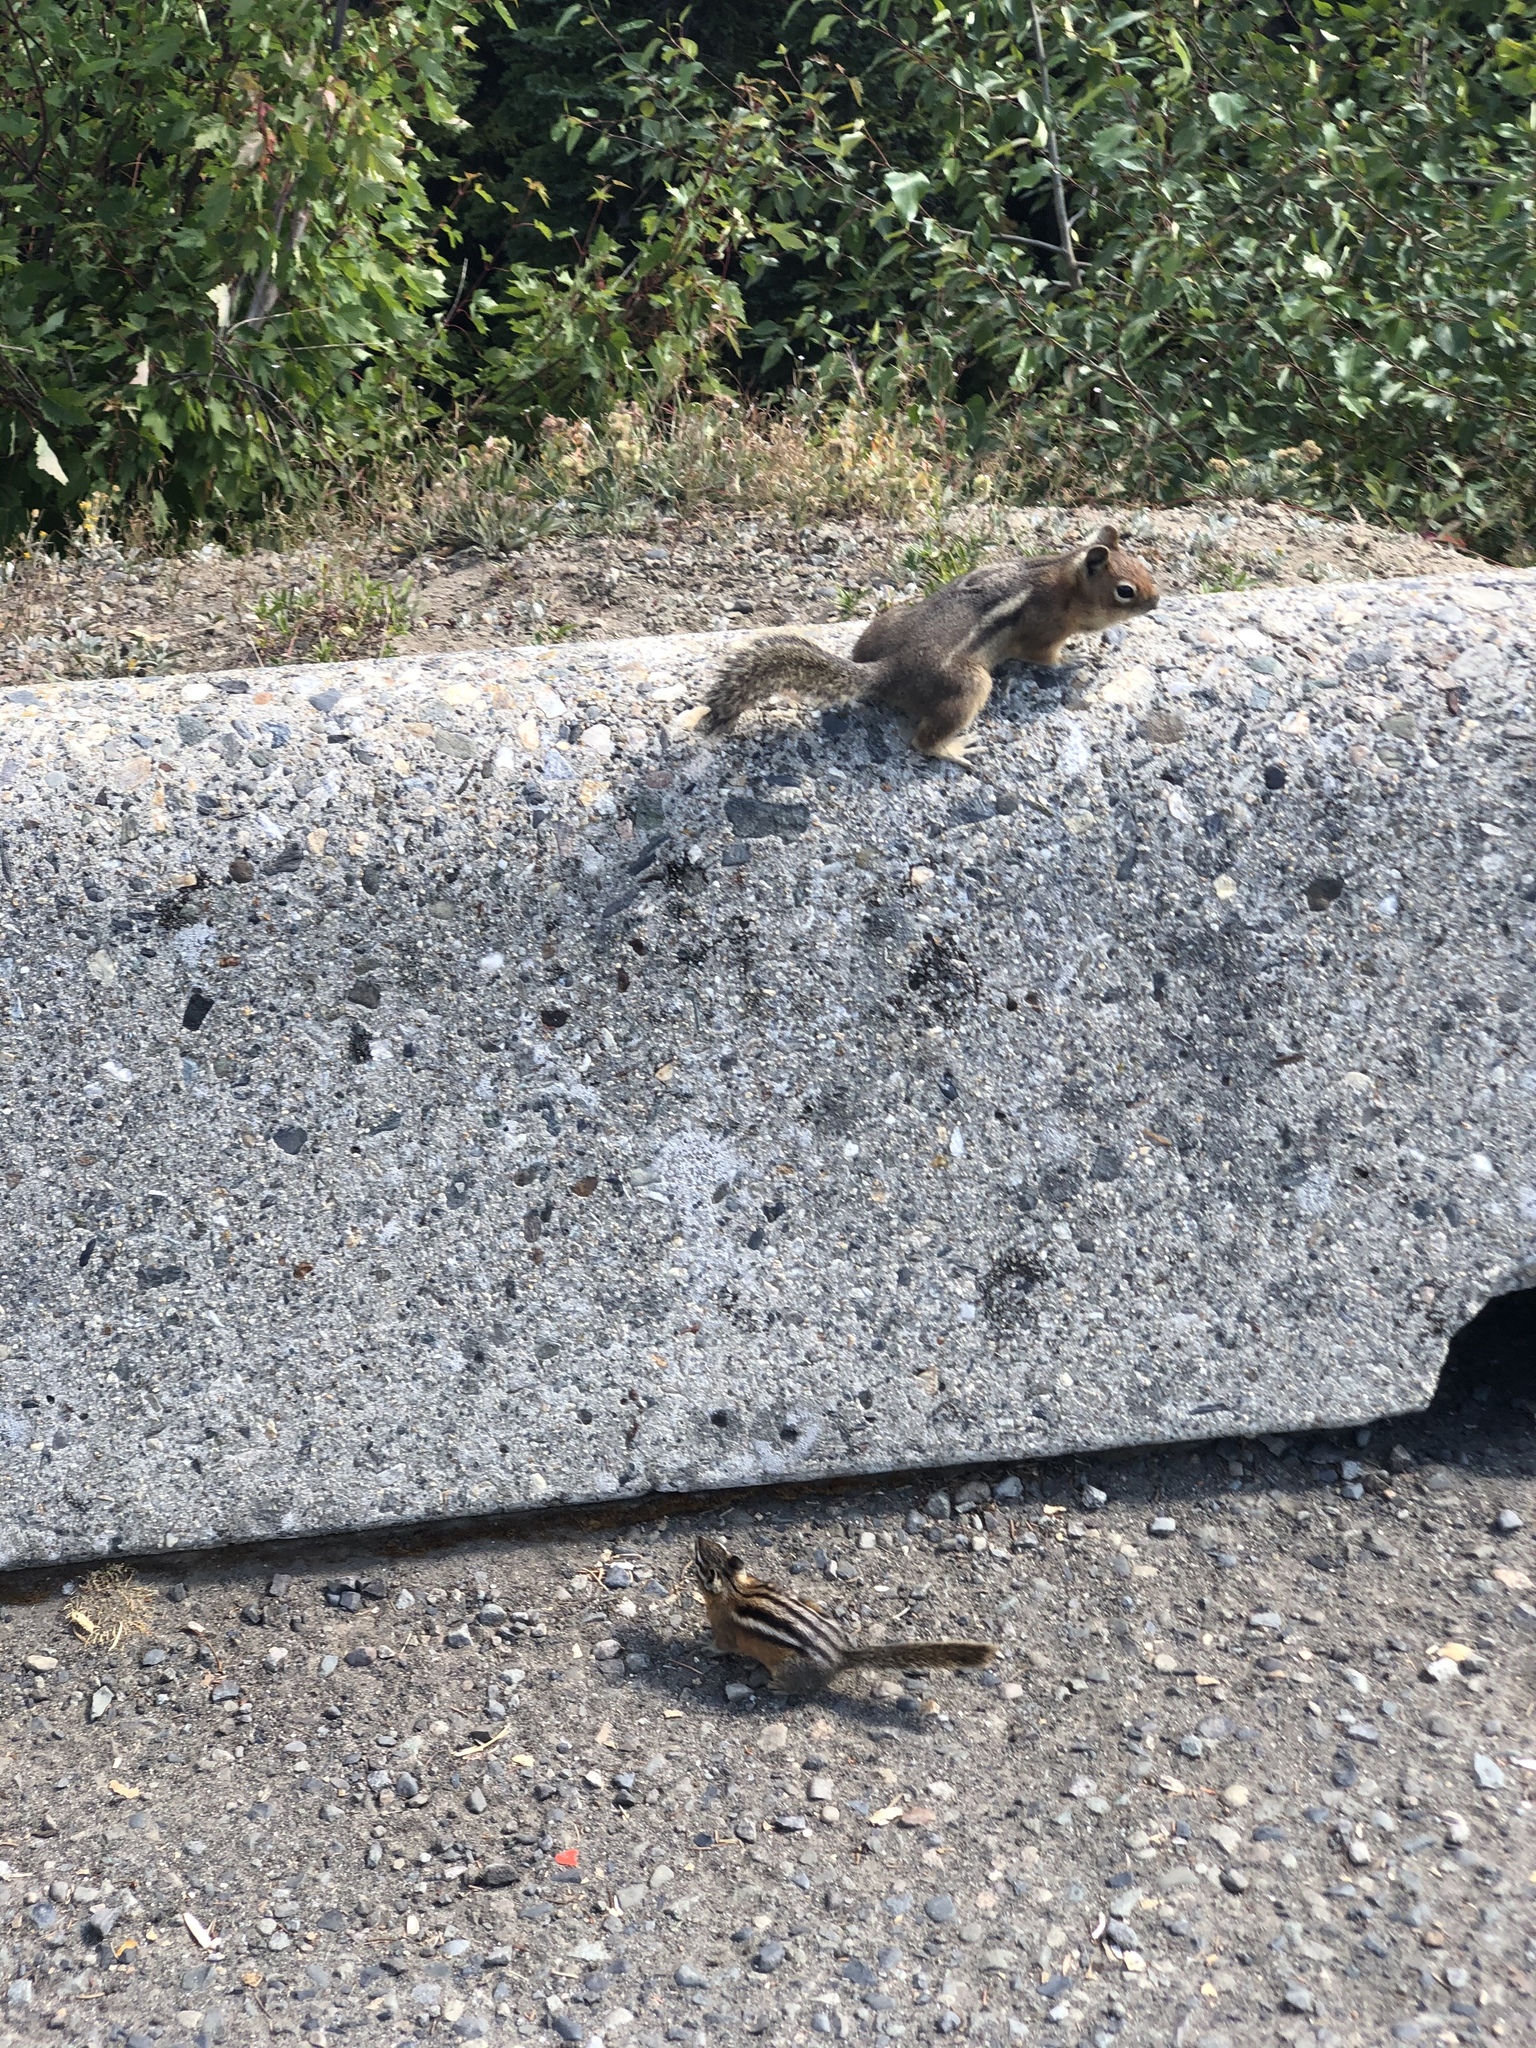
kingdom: Animalia
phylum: Chordata
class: Mammalia
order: Rodentia
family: Sciuridae
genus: Callospermophilus
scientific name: Callospermophilus saturatus
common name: Cascade golden-mantled ground squirrel
